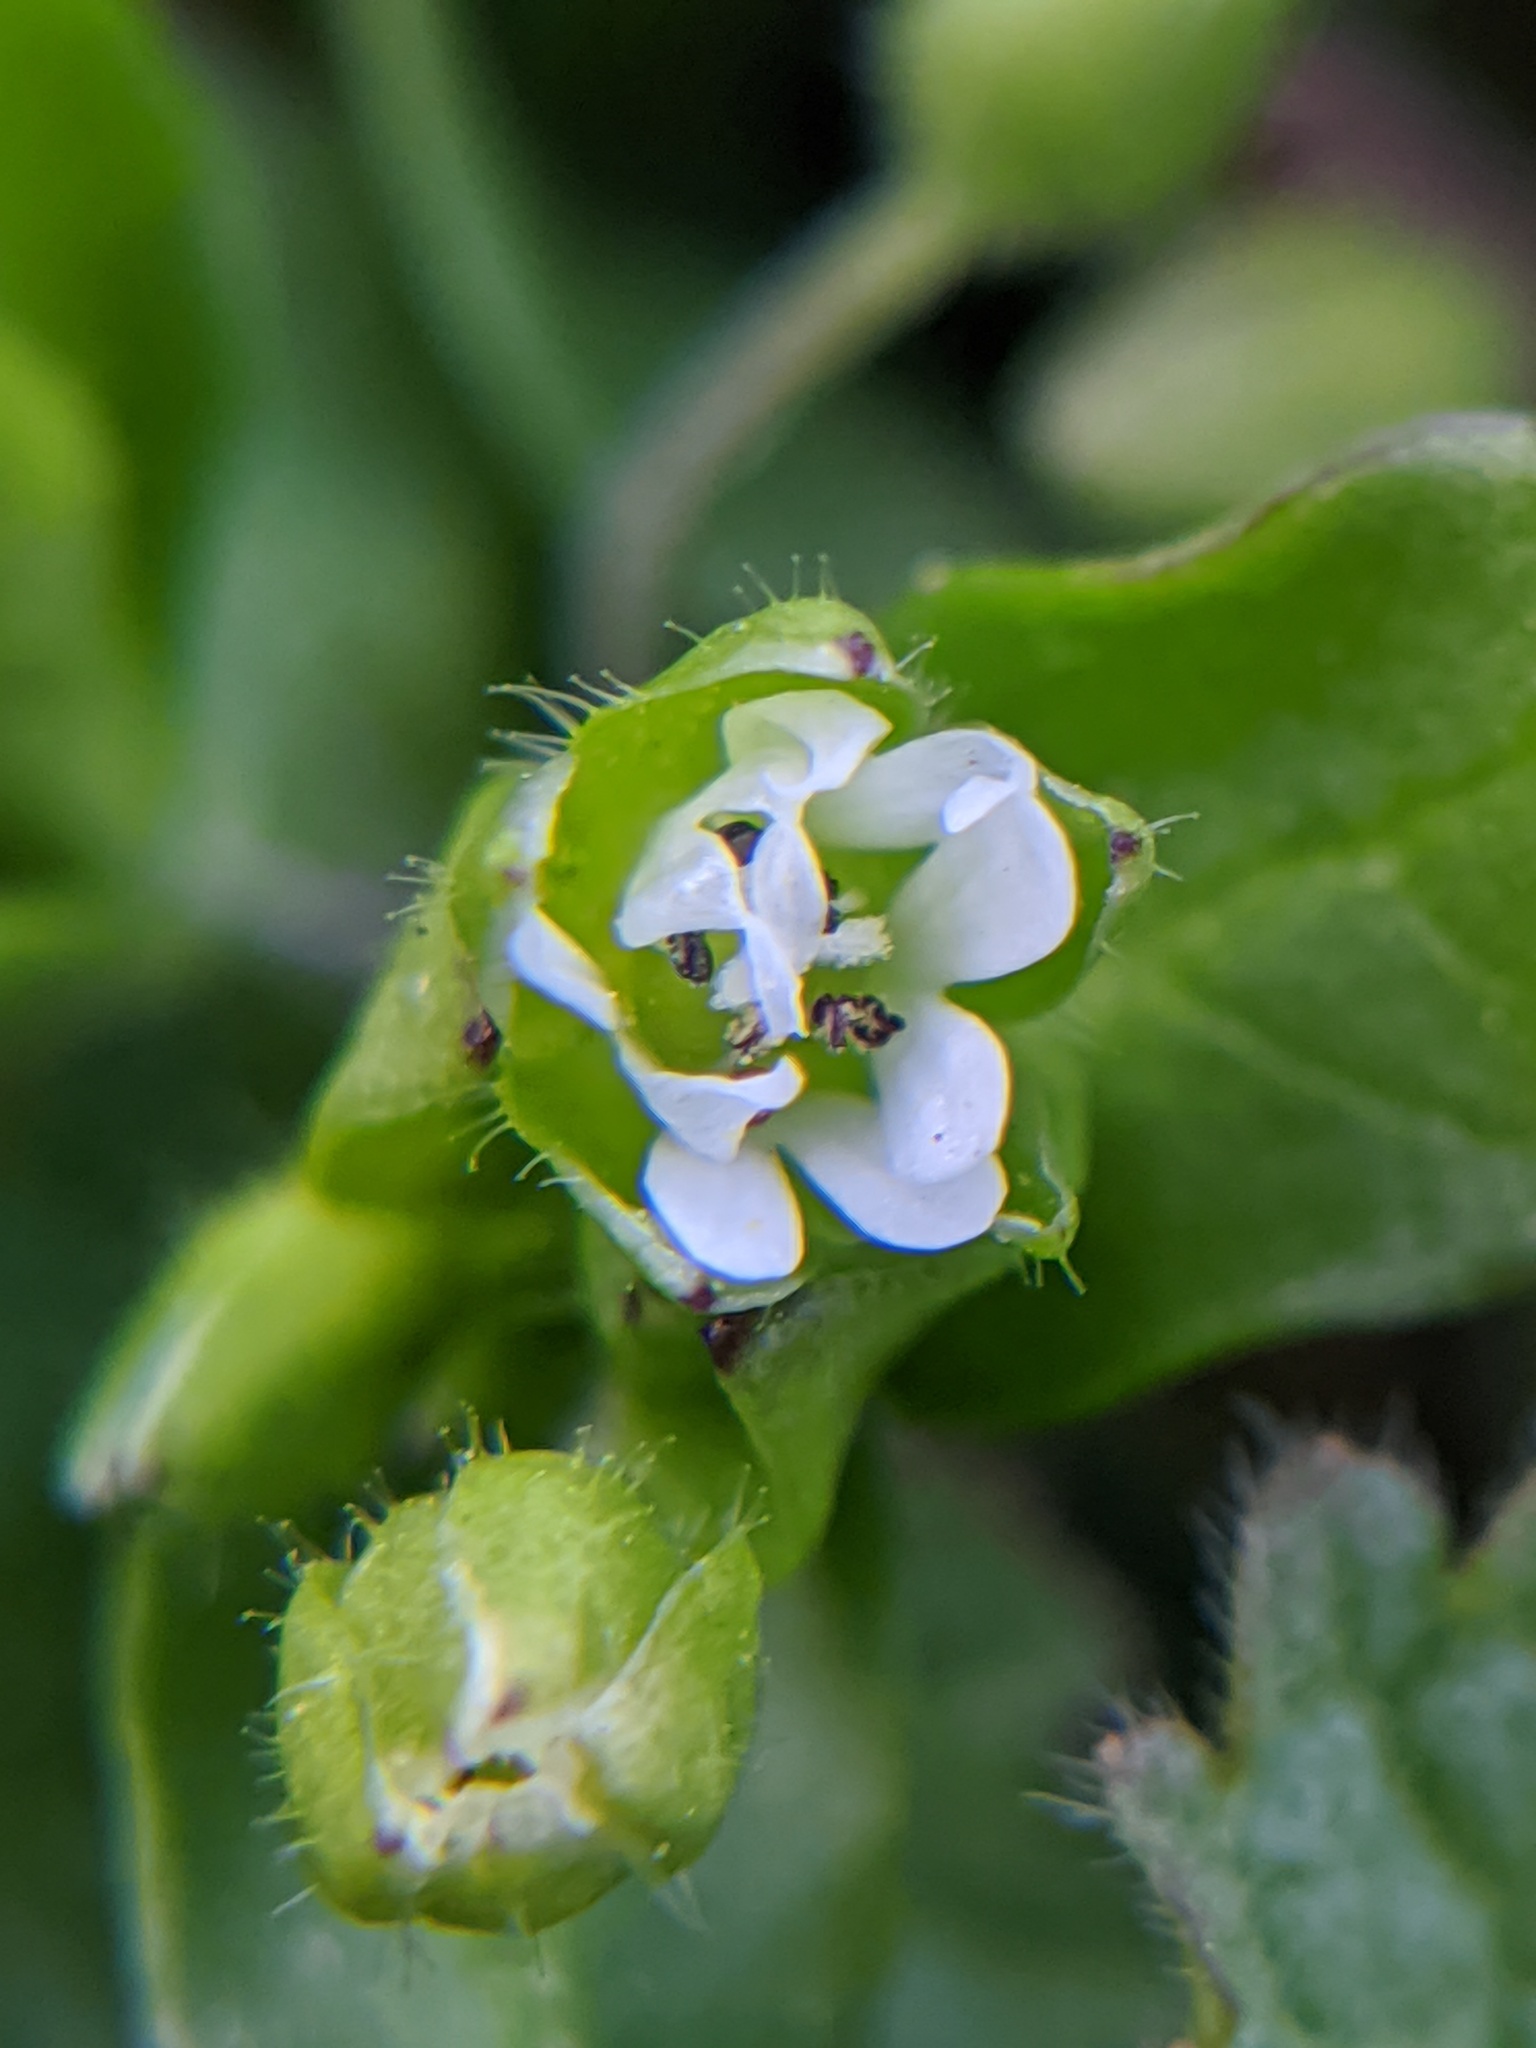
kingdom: Plantae
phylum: Tracheophyta
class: Magnoliopsida
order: Caryophyllales
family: Caryophyllaceae
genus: Stellaria
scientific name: Stellaria media
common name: Common chickweed
